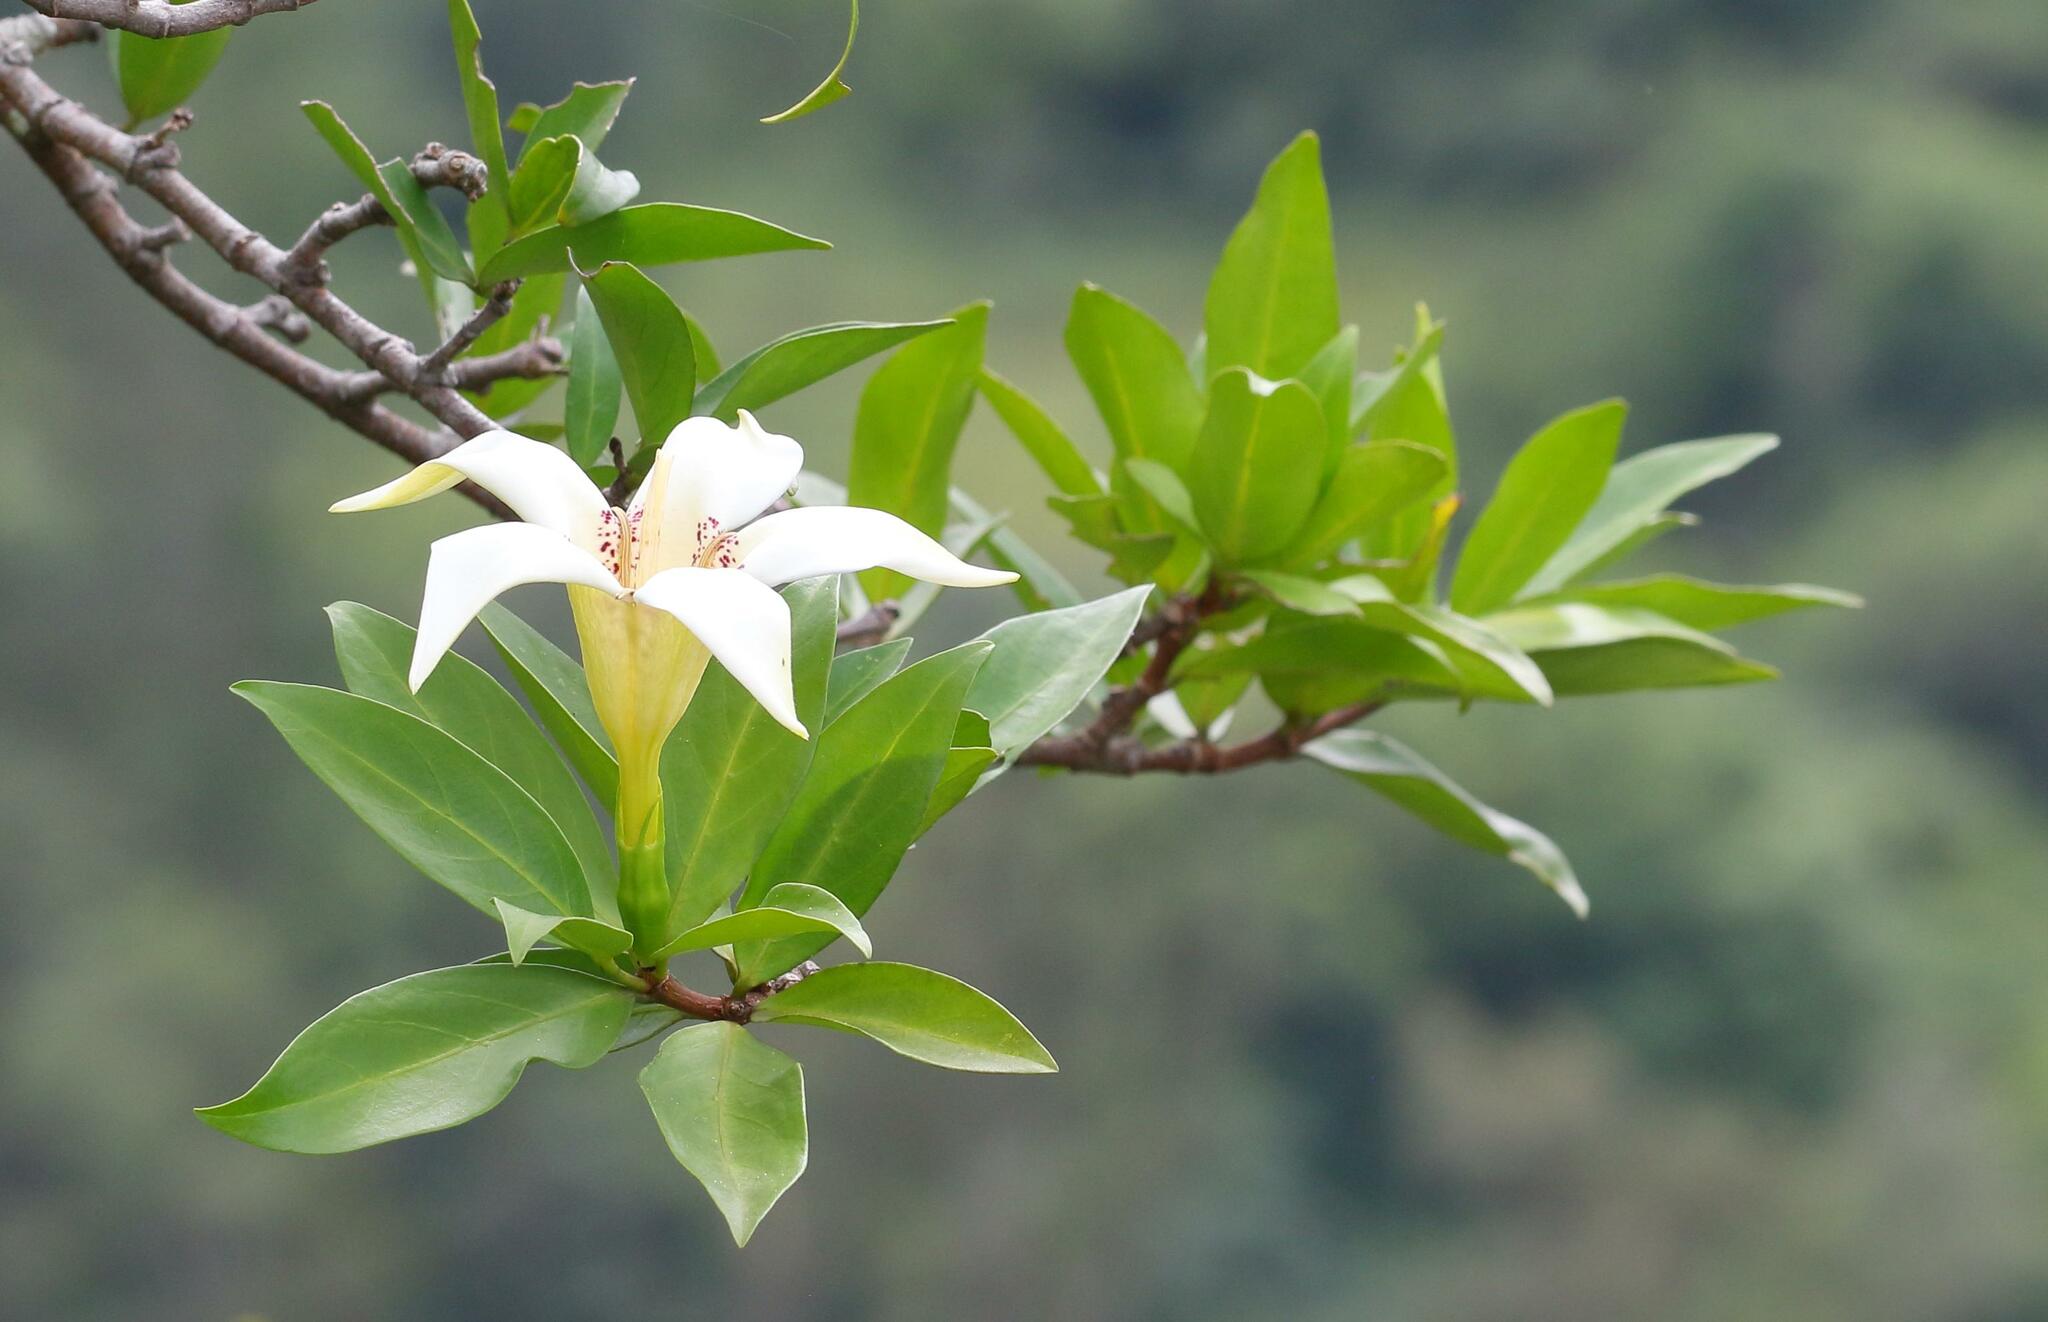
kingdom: Plantae
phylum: Tracheophyta
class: Magnoliopsida
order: Gentianales
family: Rubiaceae
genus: Rothmannia
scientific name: Rothmannia capensis
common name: Cape gardenia
